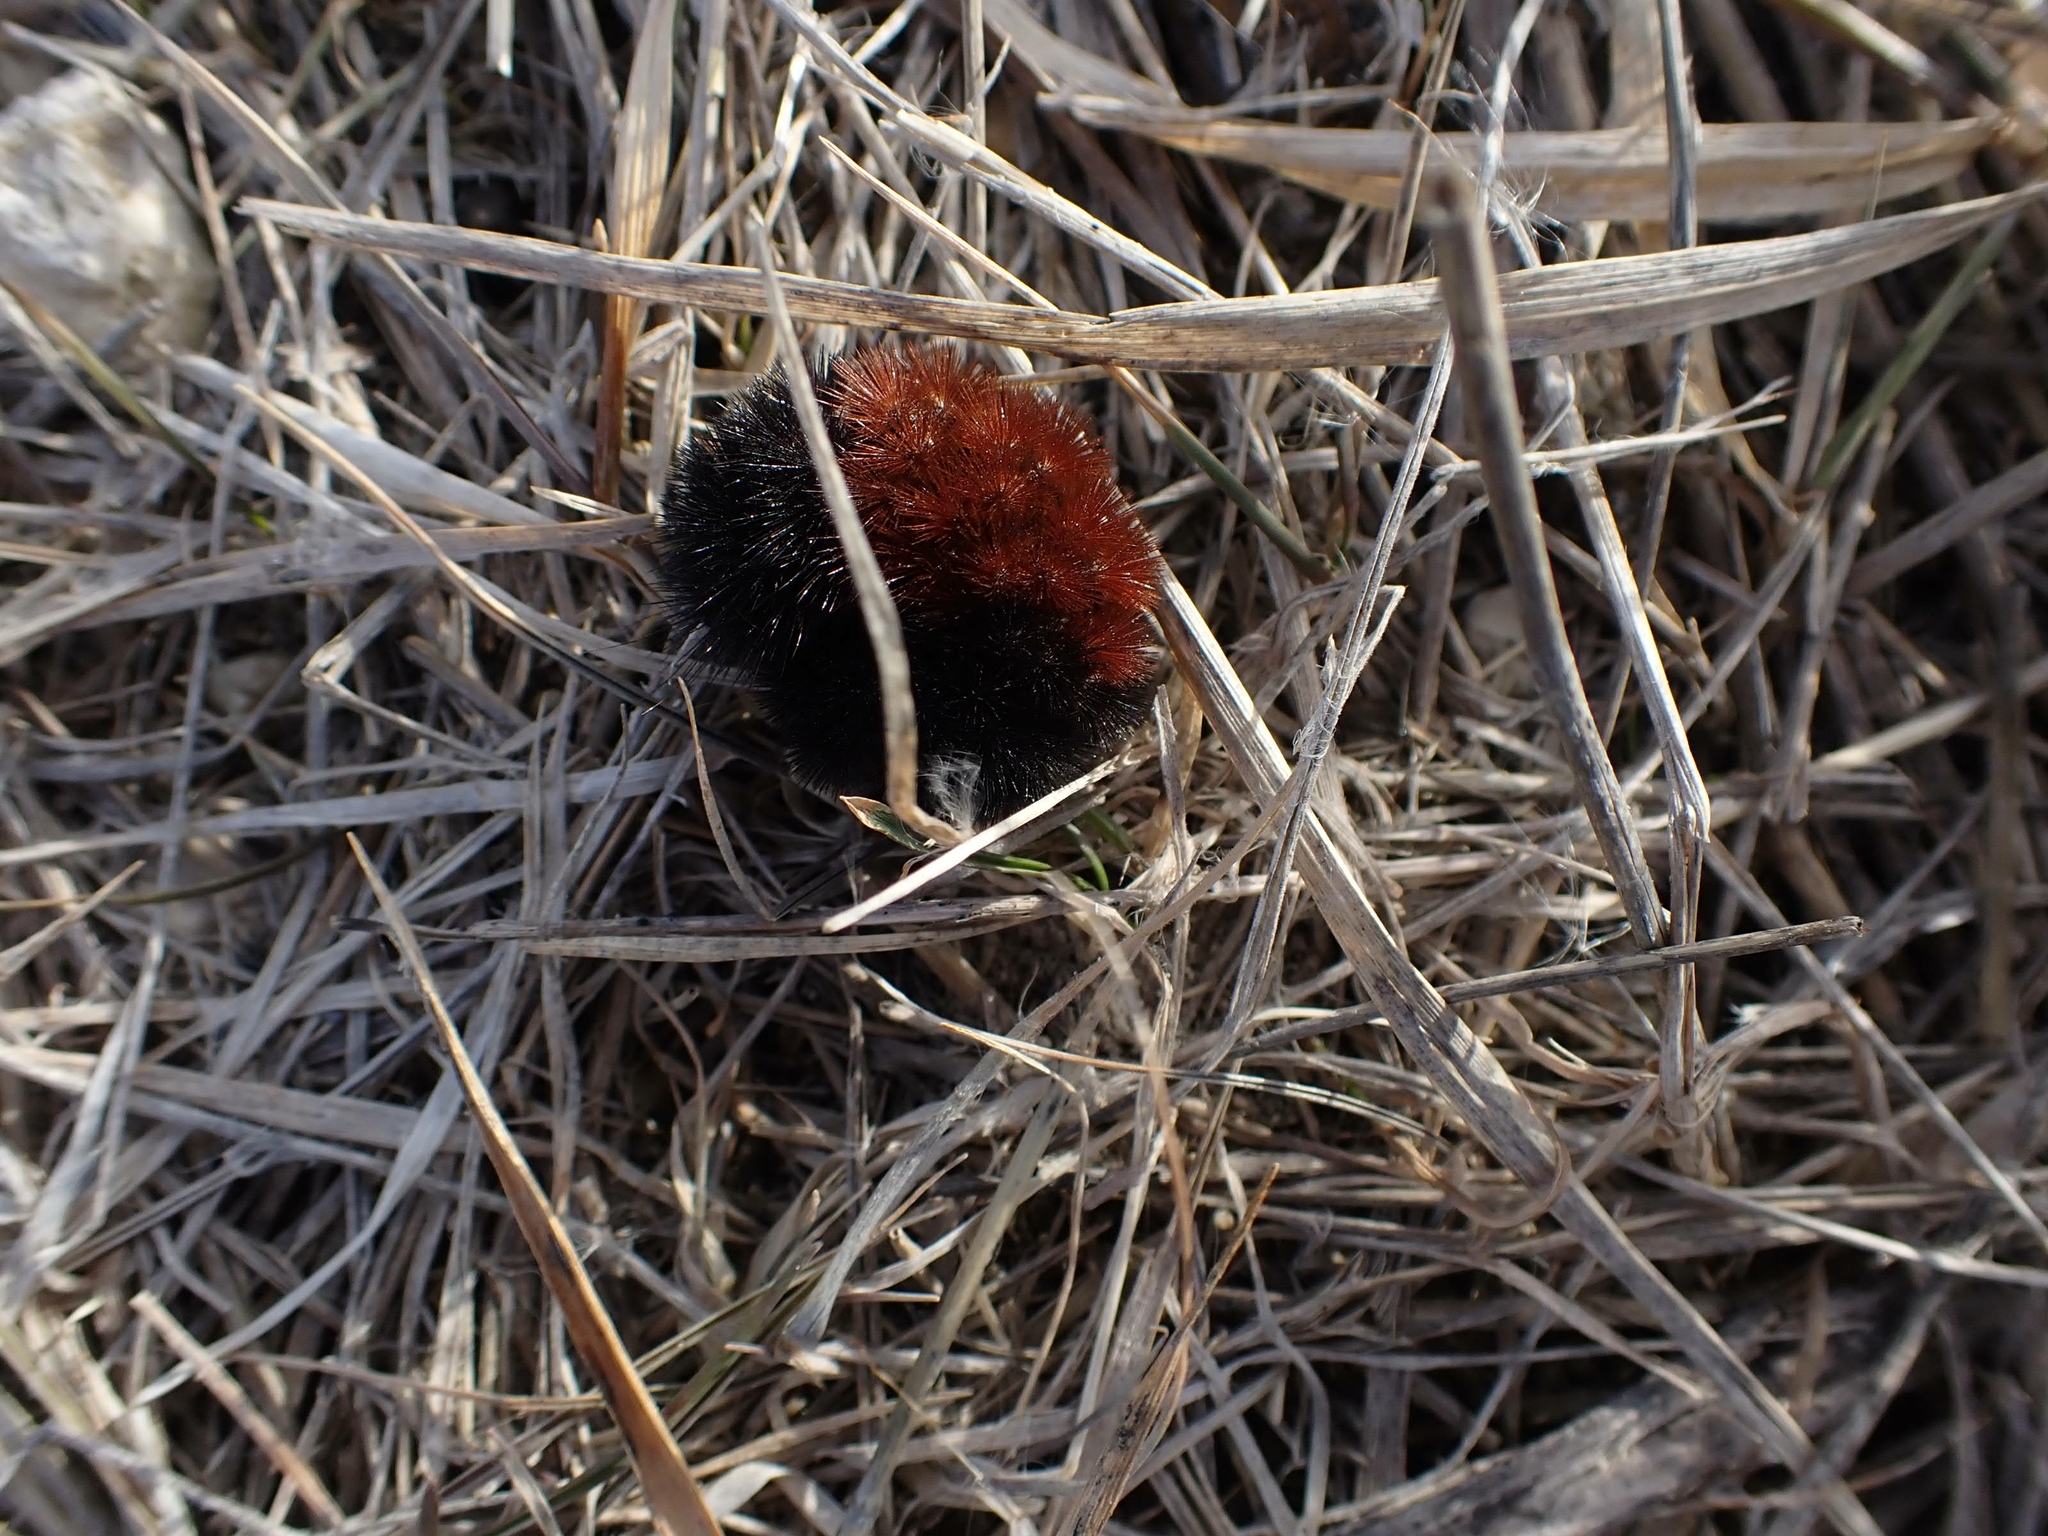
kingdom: Animalia
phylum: Arthropoda
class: Insecta
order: Lepidoptera
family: Erebidae
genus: Pyrrharctia
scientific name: Pyrrharctia isabella
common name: Isabella tiger moth
